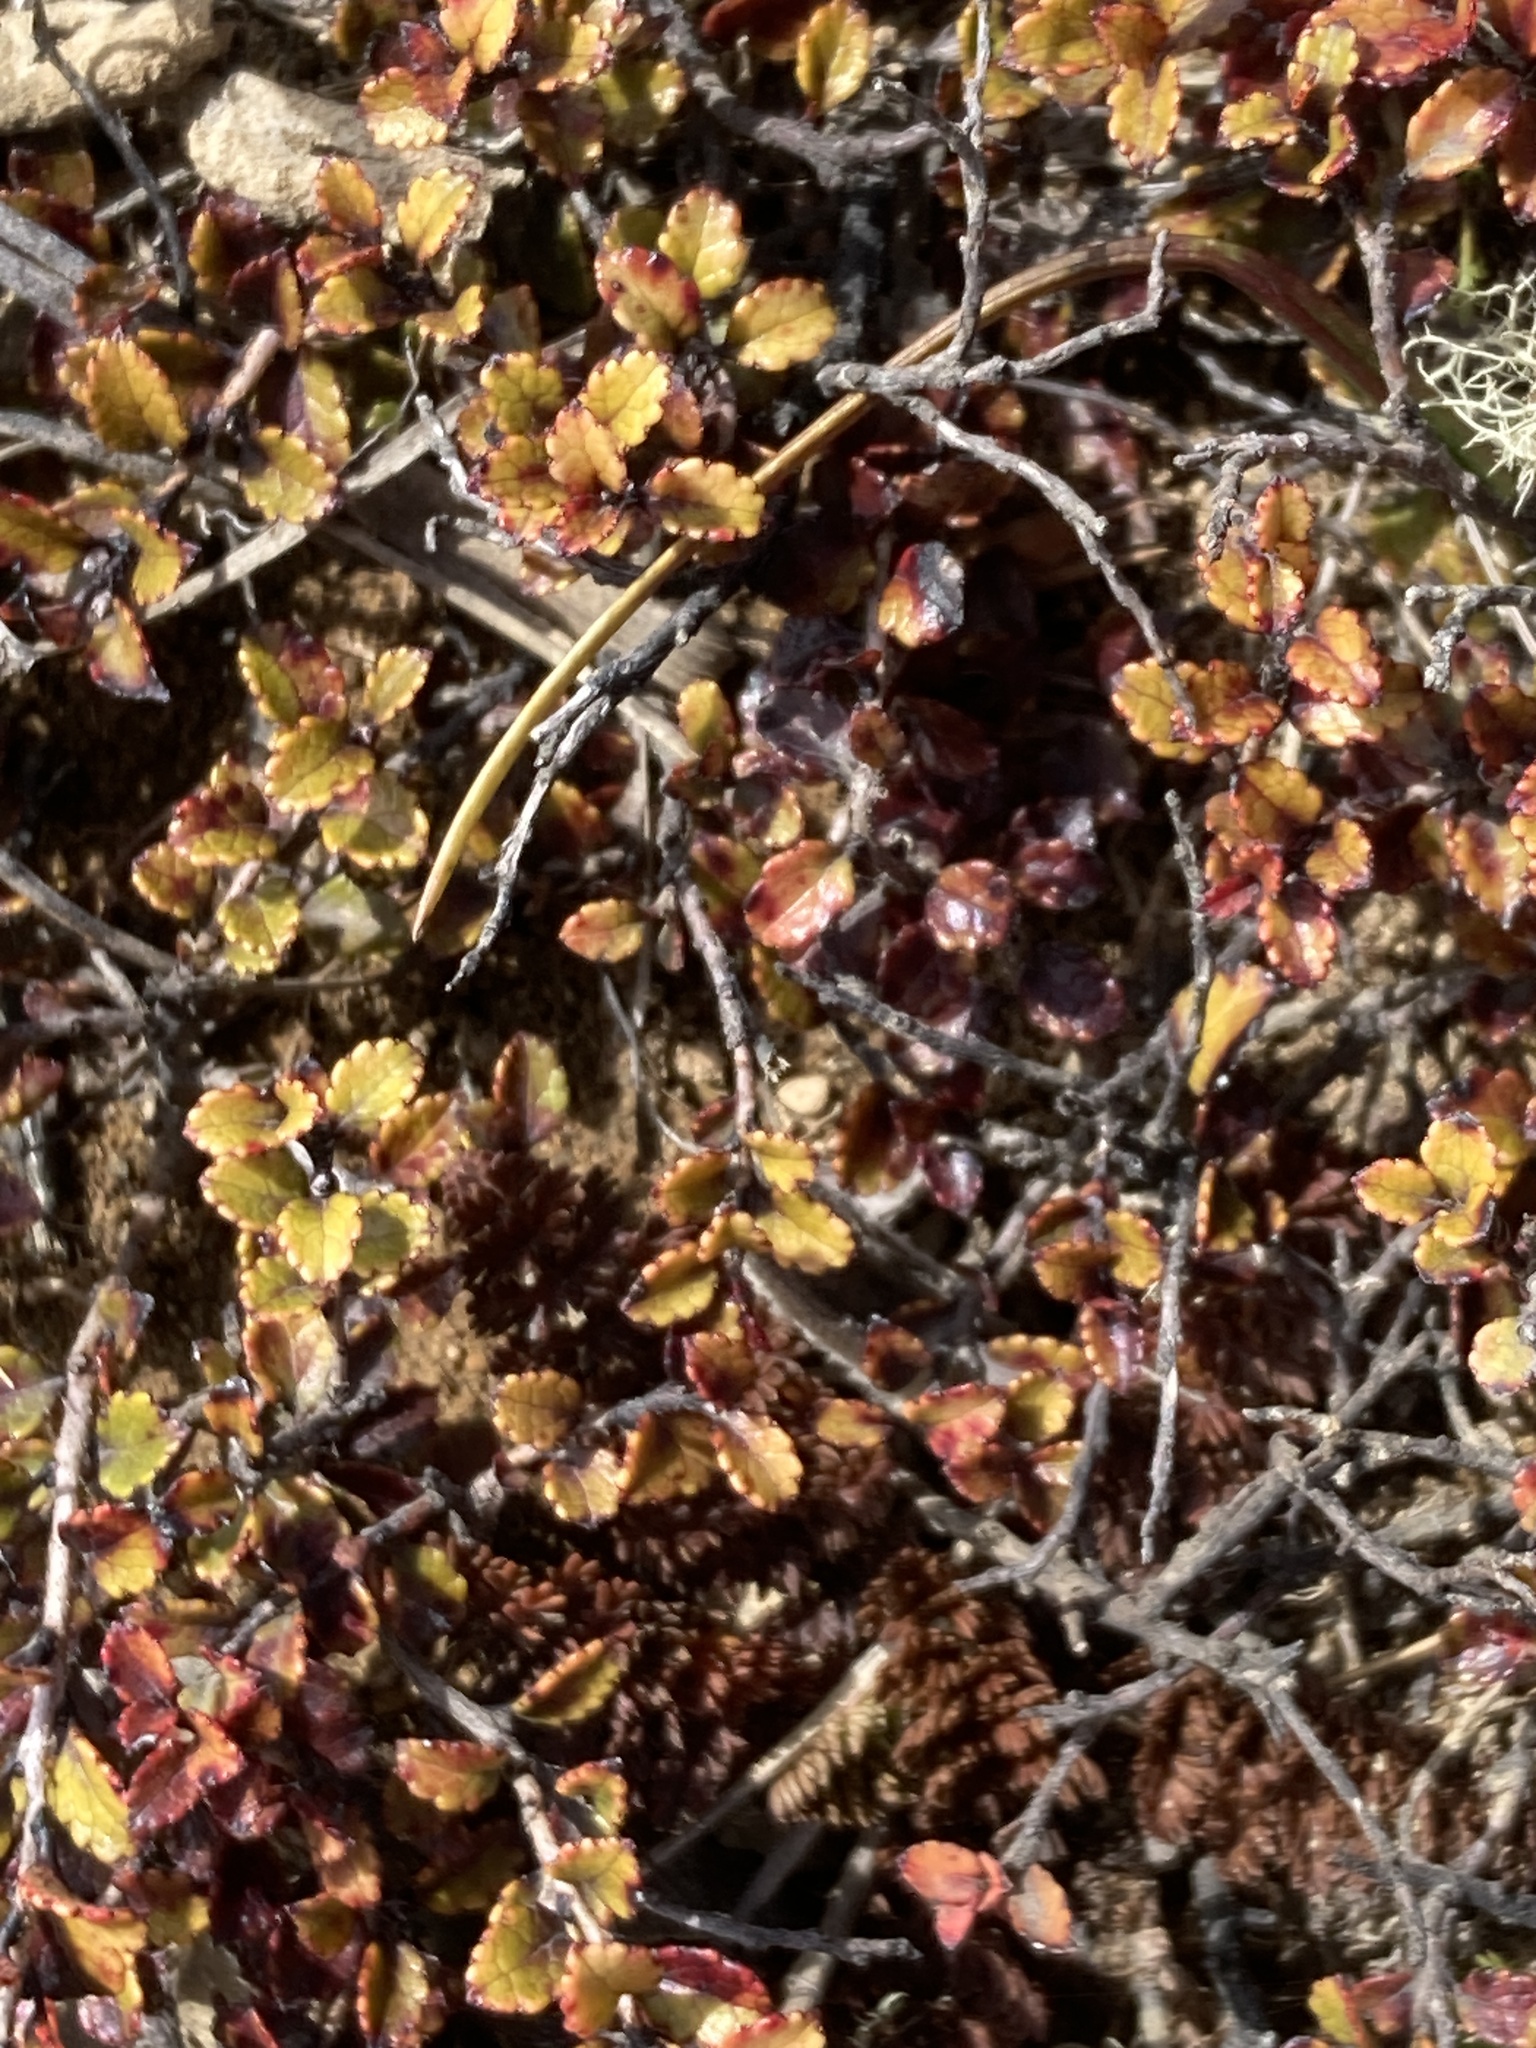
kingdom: Plantae
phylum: Tracheophyta
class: Magnoliopsida
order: Ericales
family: Ericaceae
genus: Gaultheria
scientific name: Gaultheria depressa
